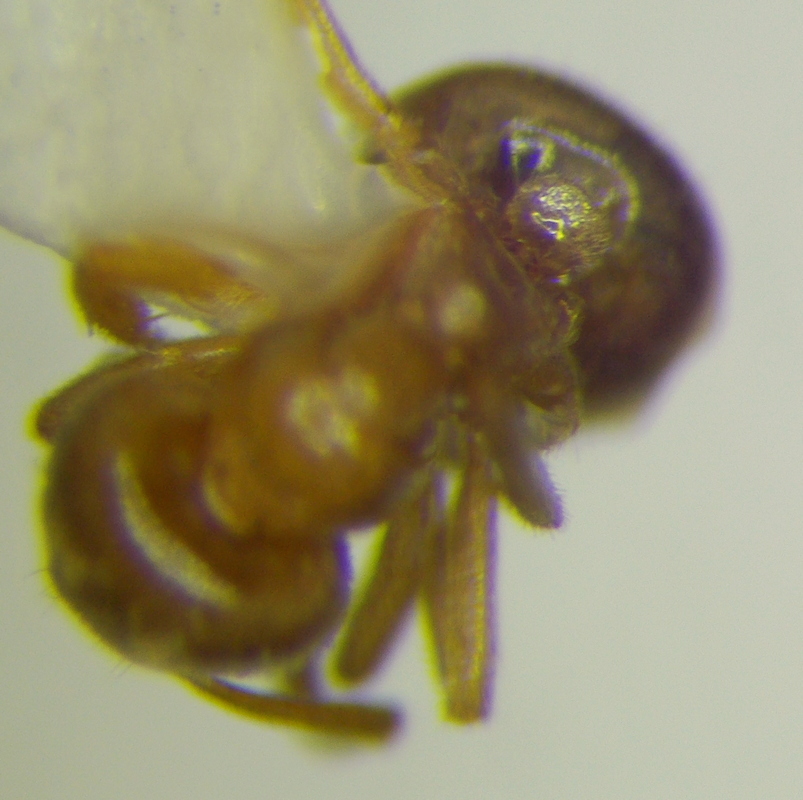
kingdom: Animalia
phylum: Arthropoda
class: Insecta
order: Hymenoptera
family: Formicidae
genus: Lasius
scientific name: Lasius flavus
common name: Blond field ant
